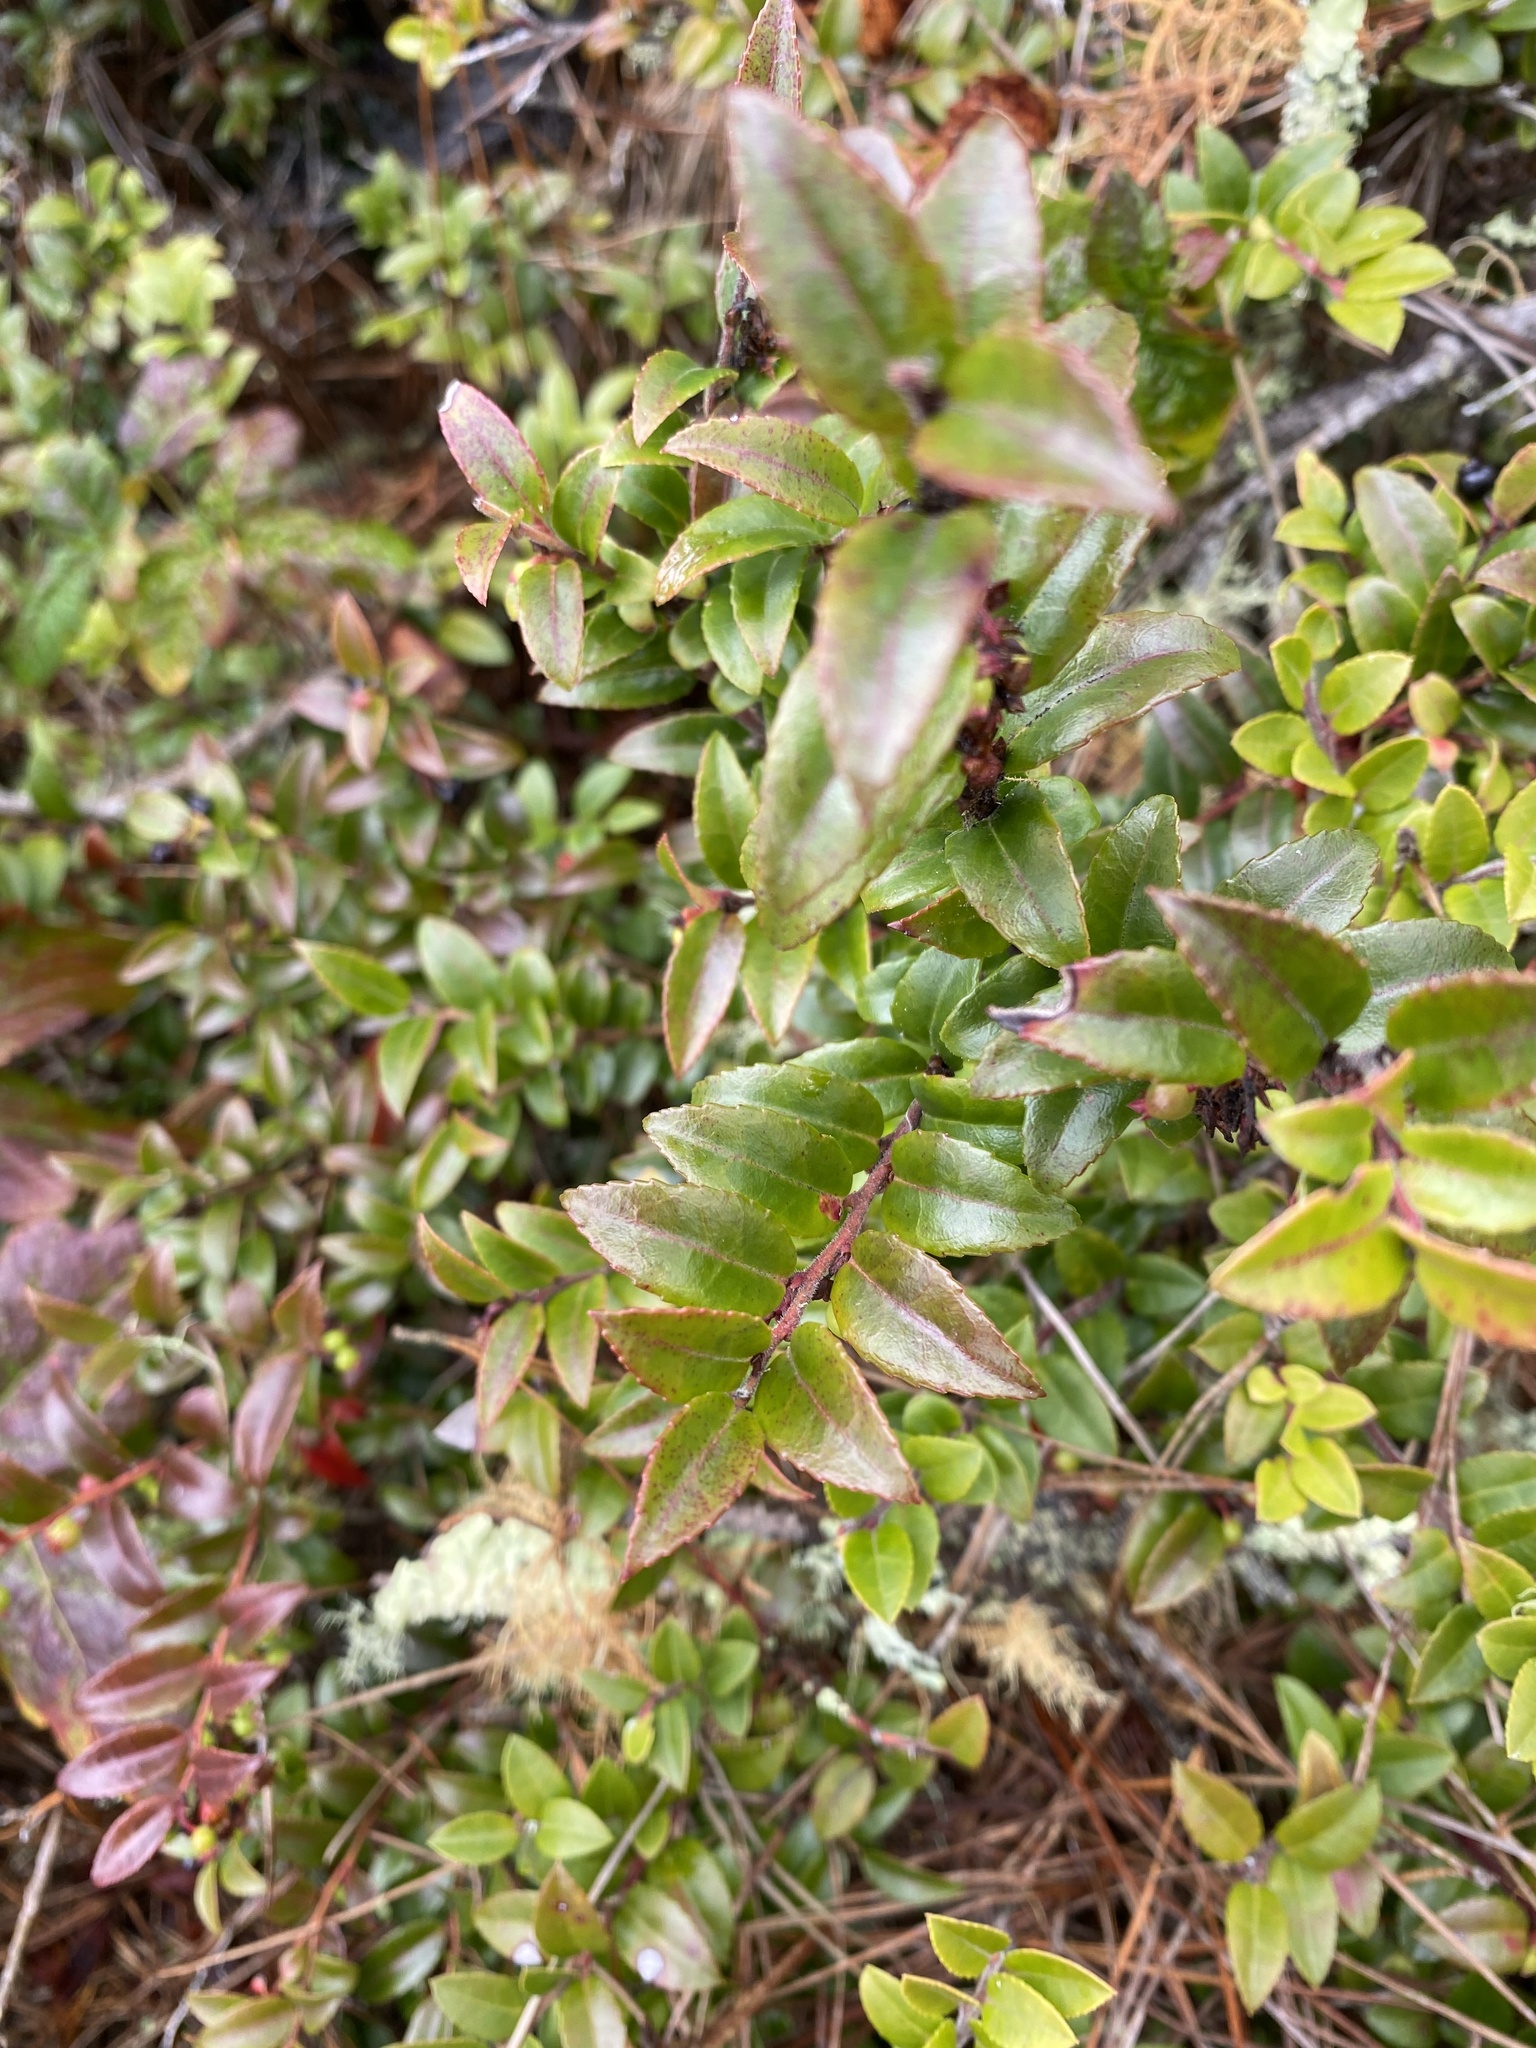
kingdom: Plantae
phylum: Tracheophyta
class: Magnoliopsida
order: Ericales
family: Ericaceae
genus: Vaccinium
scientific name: Vaccinium ovatum
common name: California-huckleberry
